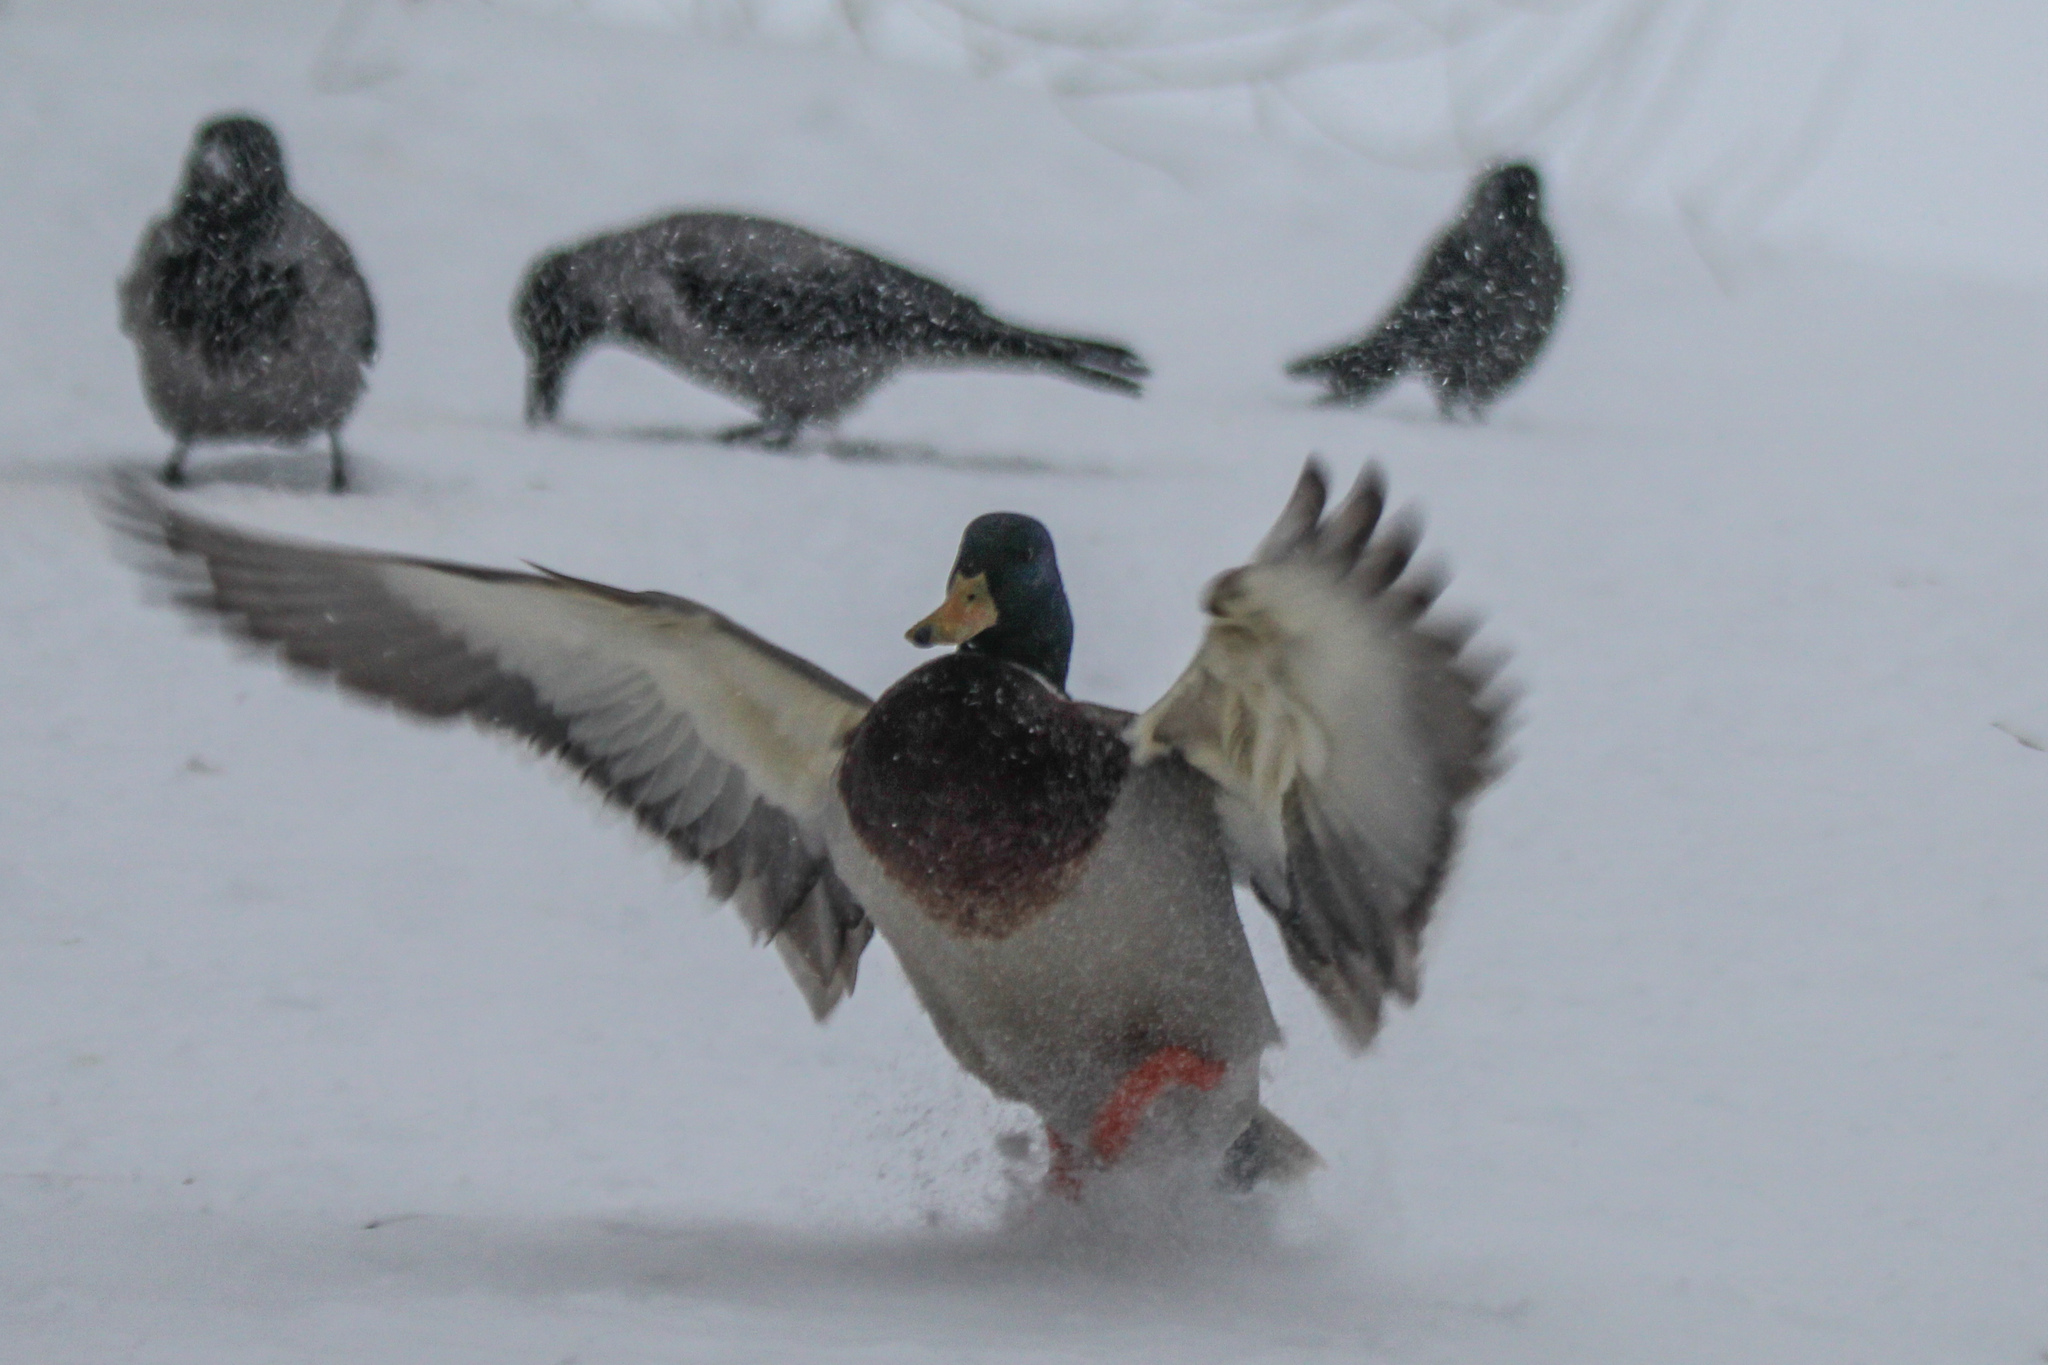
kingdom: Animalia
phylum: Chordata
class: Aves
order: Anseriformes
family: Anatidae
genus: Anas
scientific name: Anas platyrhynchos
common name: Mallard
